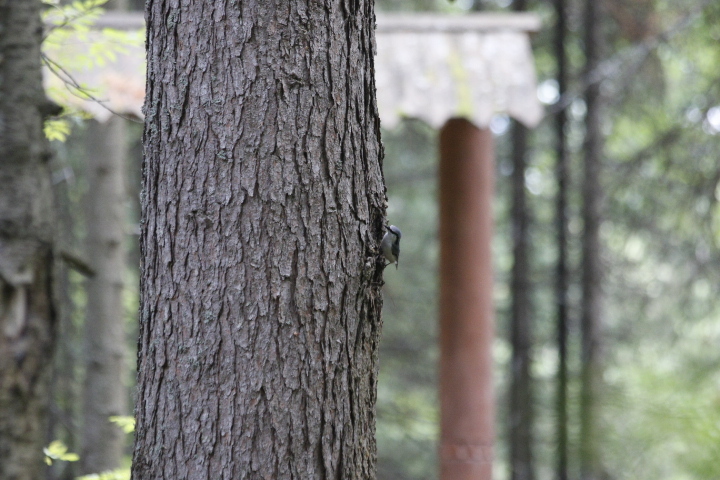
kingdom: Animalia
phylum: Chordata
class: Aves
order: Passeriformes
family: Sittidae
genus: Sitta
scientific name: Sitta europaea
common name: Eurasian nuthatch
